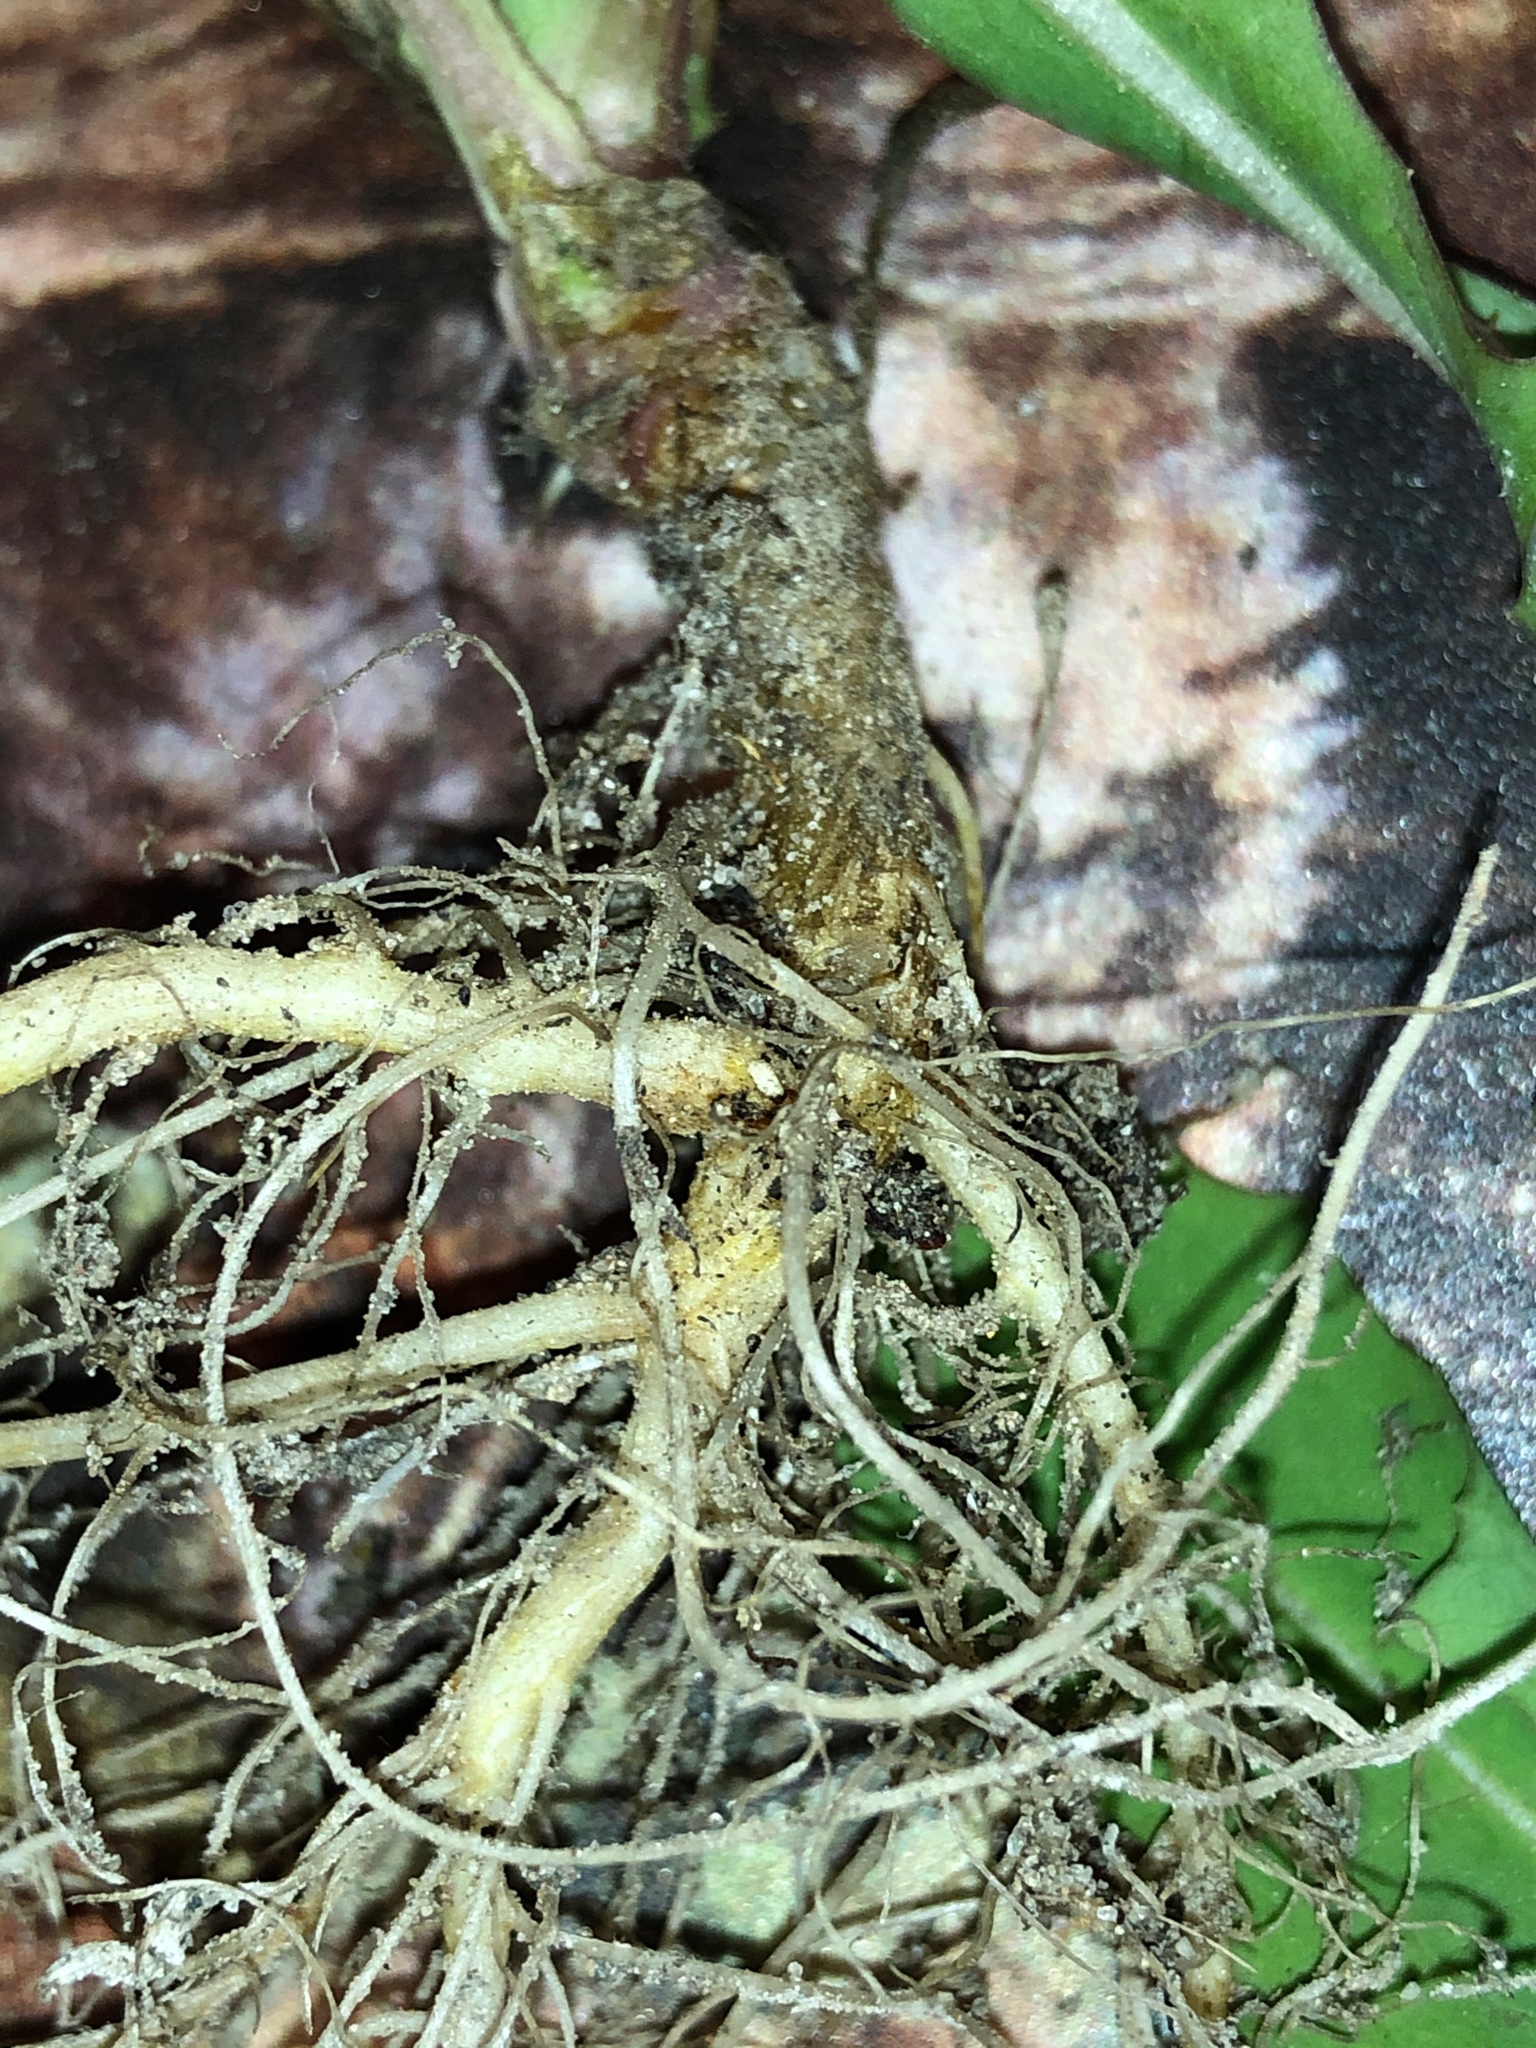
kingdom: Plantae
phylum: Tracheophyta
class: Magnoliopsida
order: Asterales
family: Asteraceae
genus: Lactuca
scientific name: Lactuca serriola
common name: Prickly lettuce
